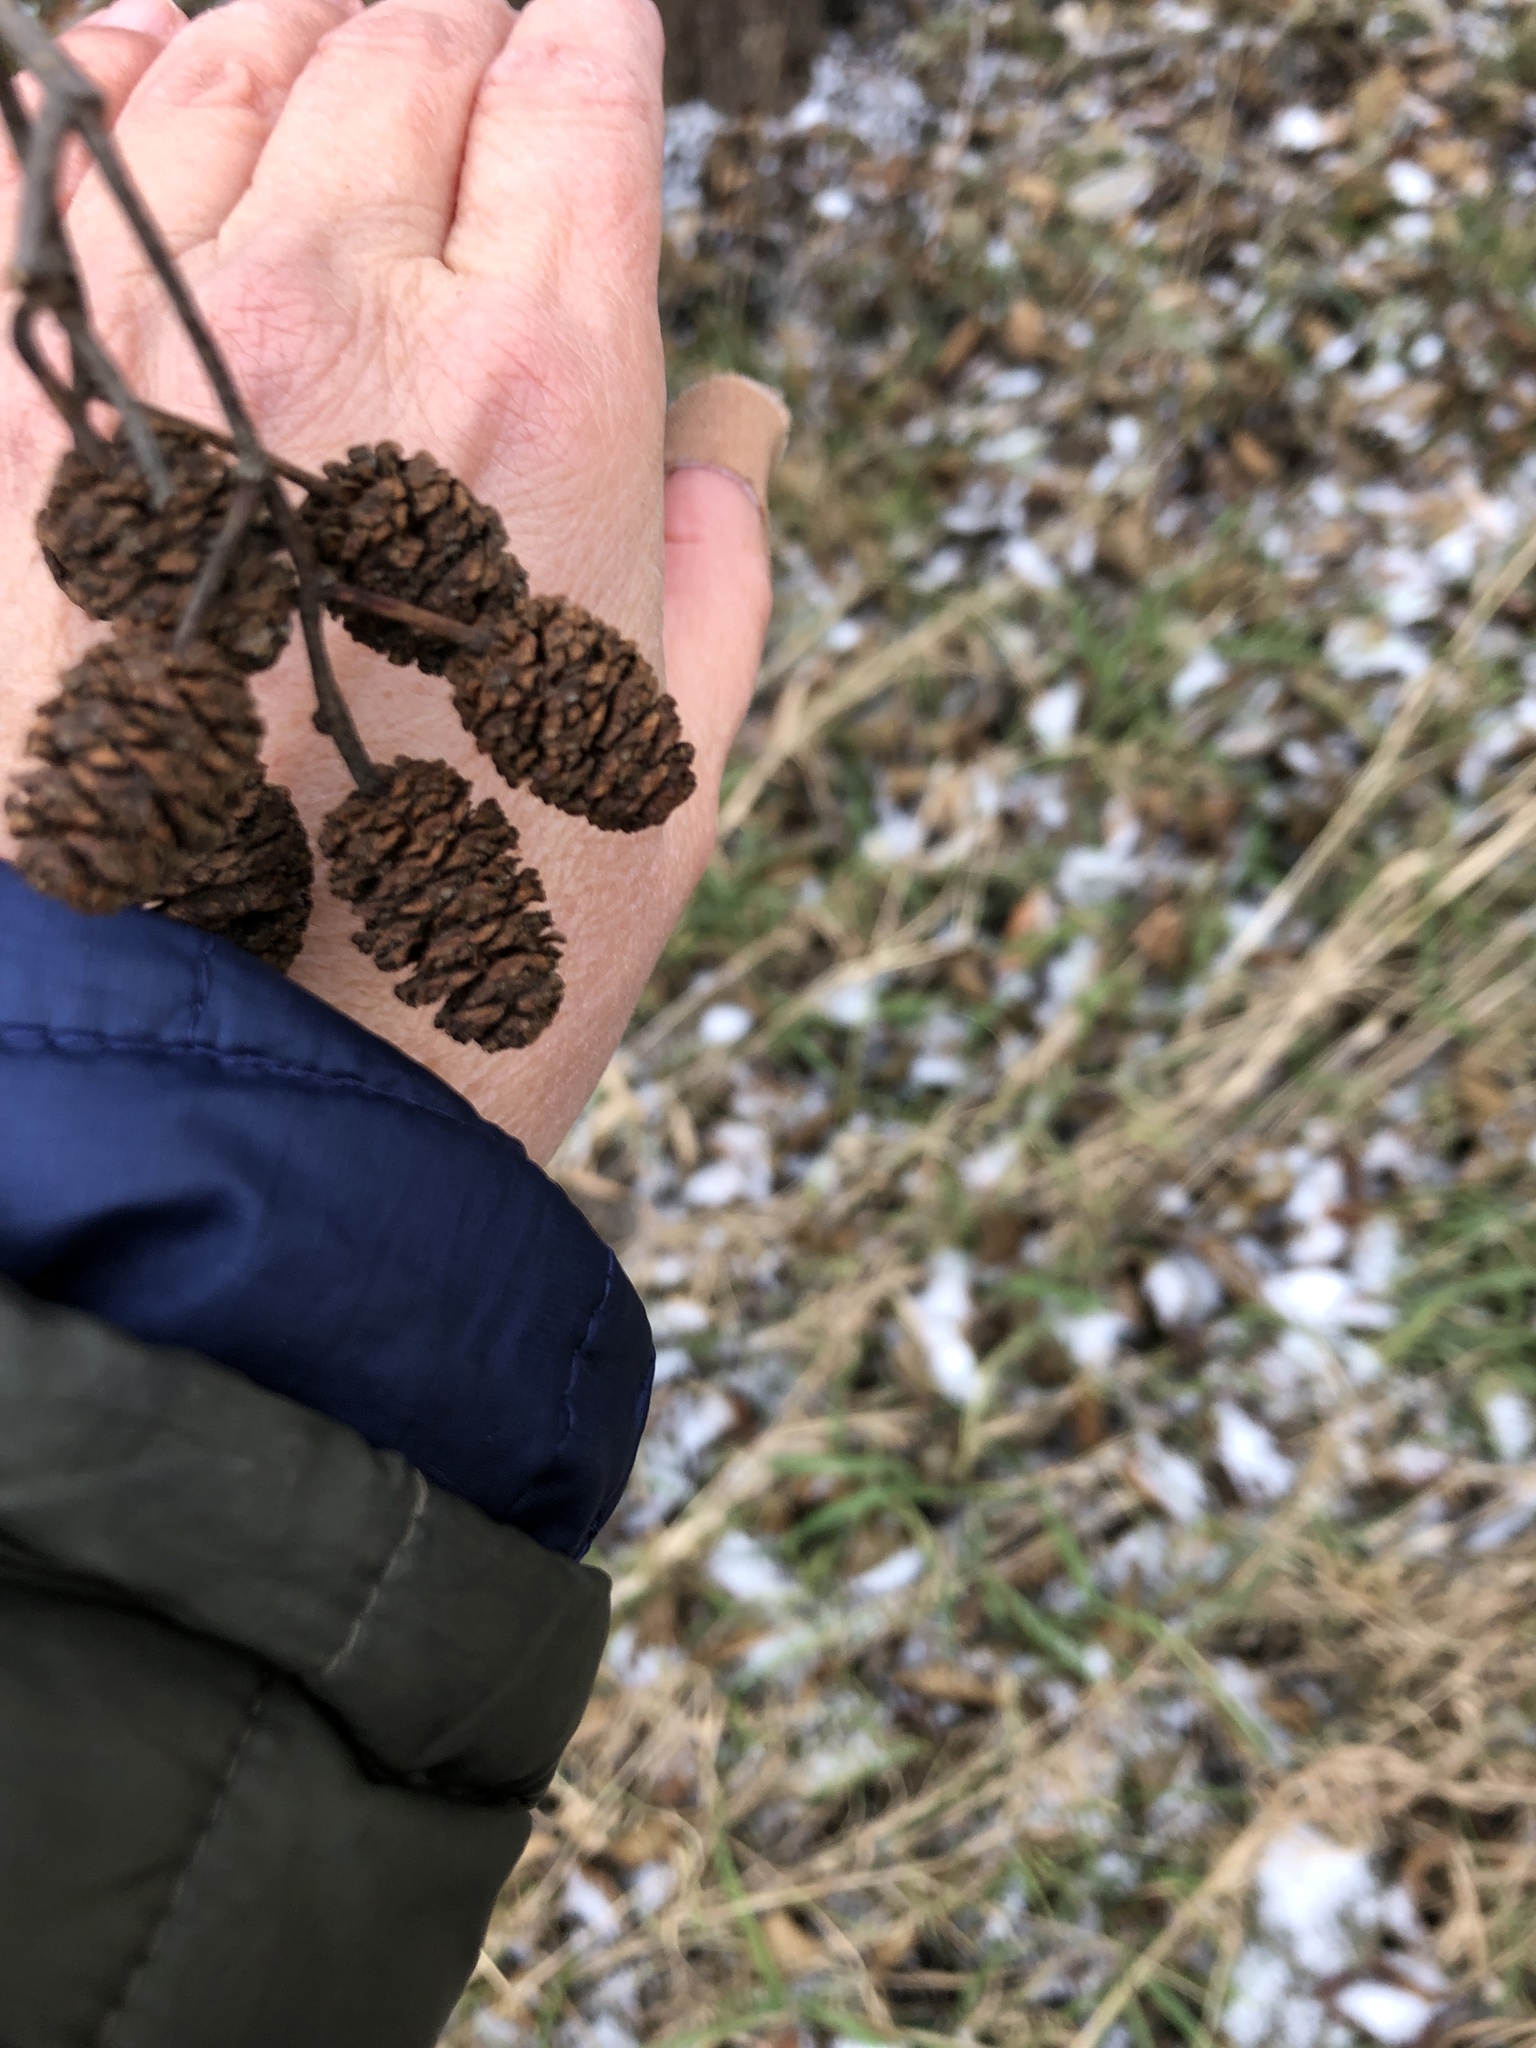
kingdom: Plantae
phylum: Tracheophyta
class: Magnoliopsida
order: Fagales
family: Betulaceae
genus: Alnus
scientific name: Alnus glutinosa
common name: Black alder
